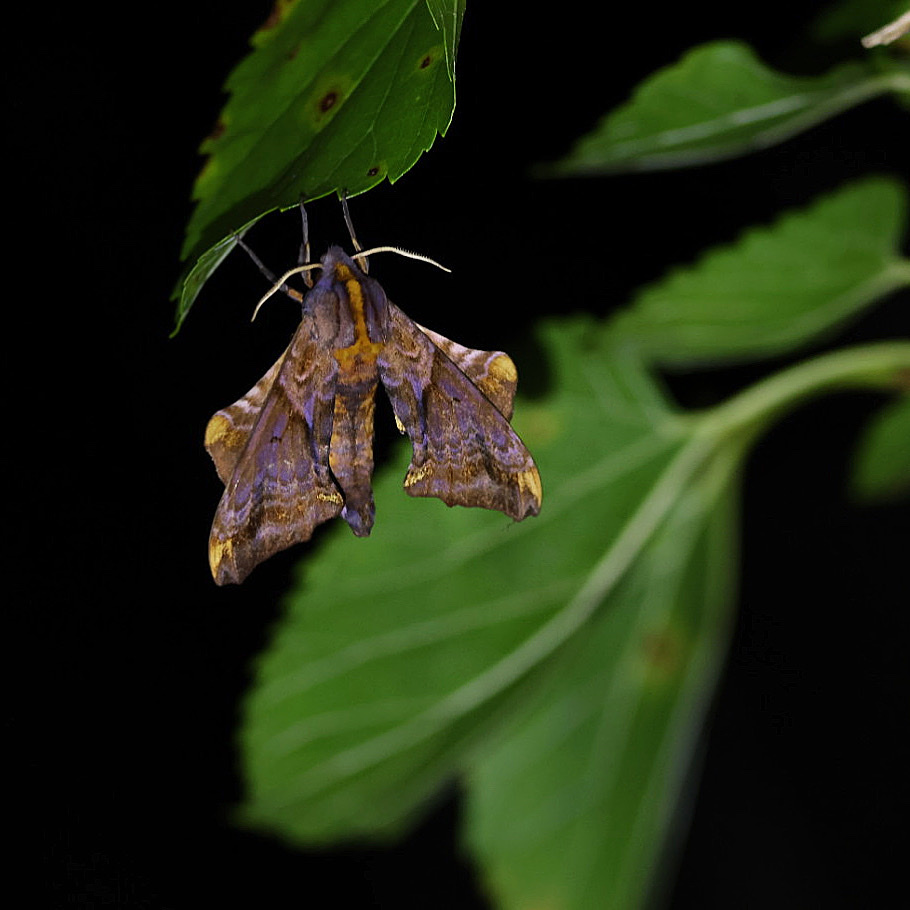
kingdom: Animalia
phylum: Arthropoda
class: Insecta
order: Lepidoptera
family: Sphingidae
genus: Paonias
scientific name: Paonias myops
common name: Small-eyed sphinx
